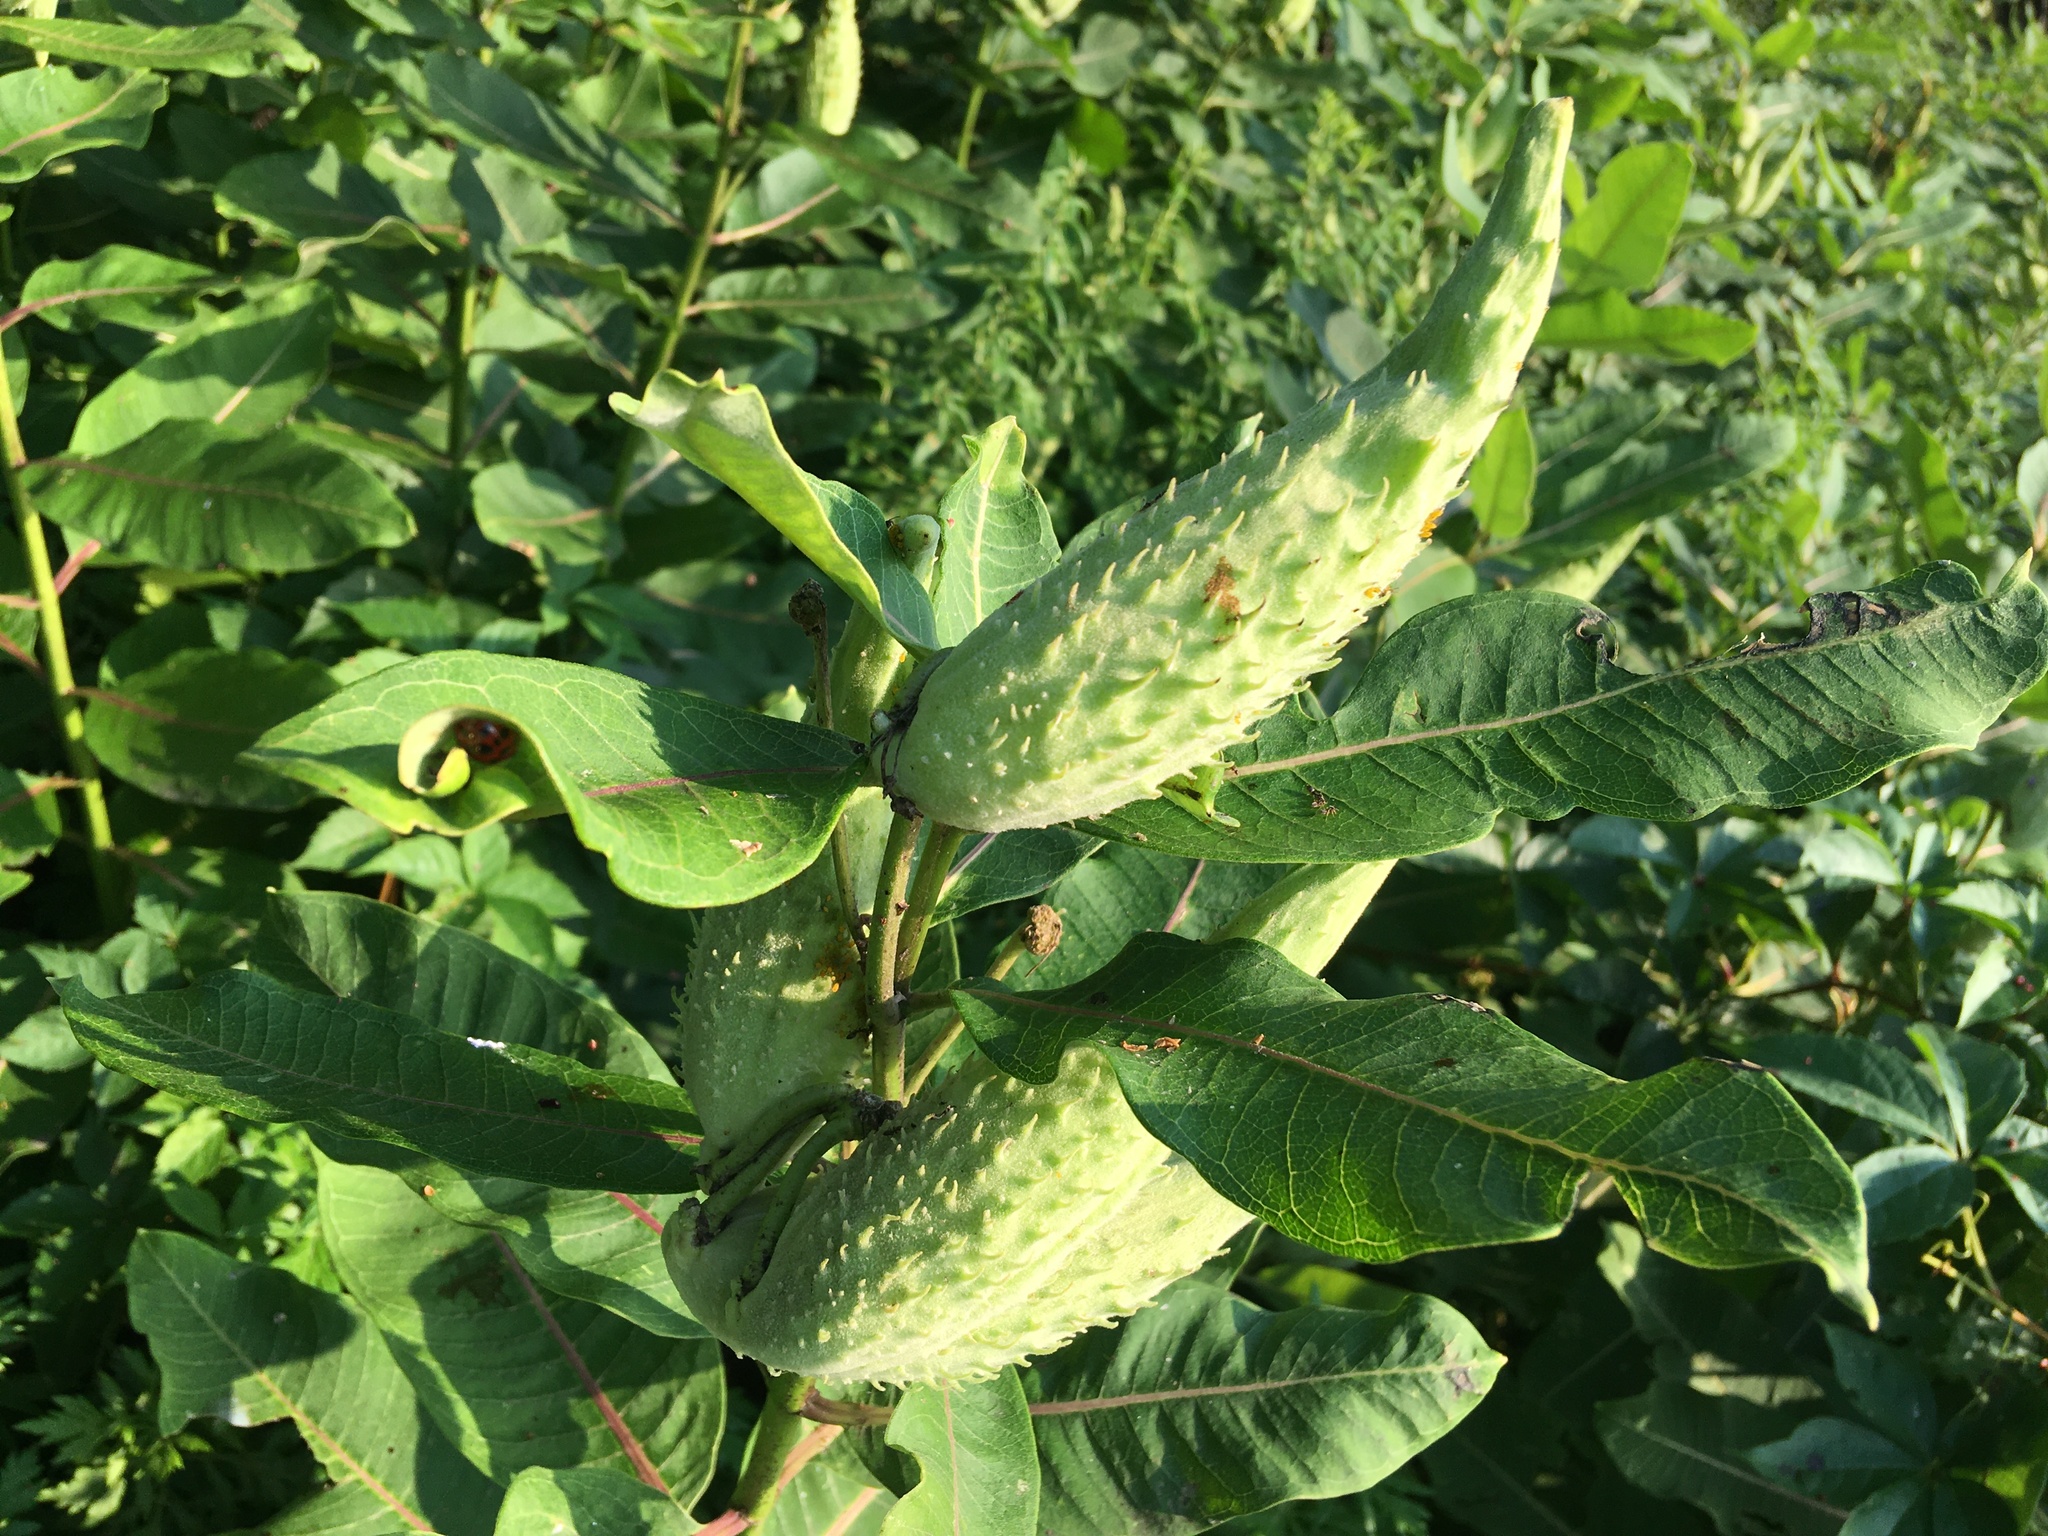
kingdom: Plantae
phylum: Tracheophyta
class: Magnoliopsida
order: Gentianales
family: Apocynaceae
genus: Asclepias
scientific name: Asclepias syriaca
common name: Common milkweed
